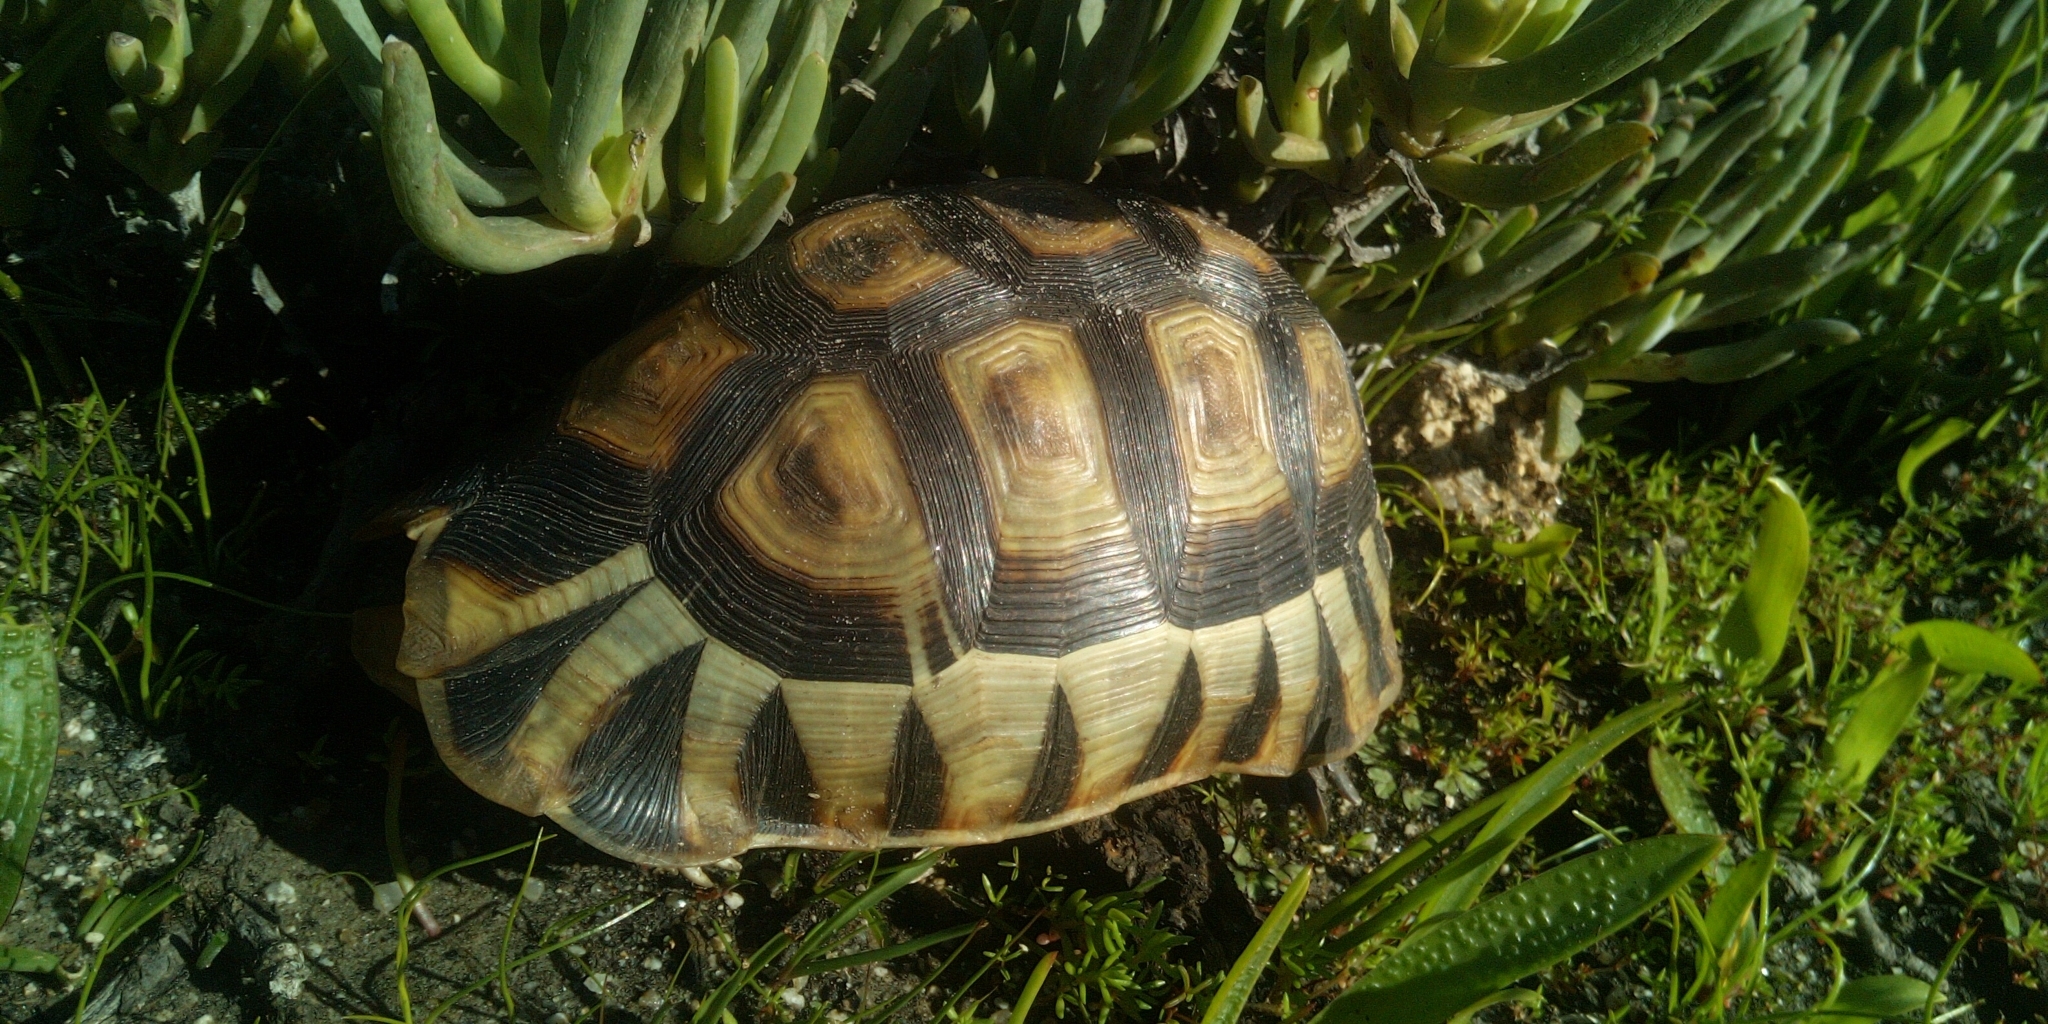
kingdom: Animalia
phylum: Chordata
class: Testudines
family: Testudinidae
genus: Chersina
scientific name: Chersina angulata
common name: South african bowsprit tortoise
